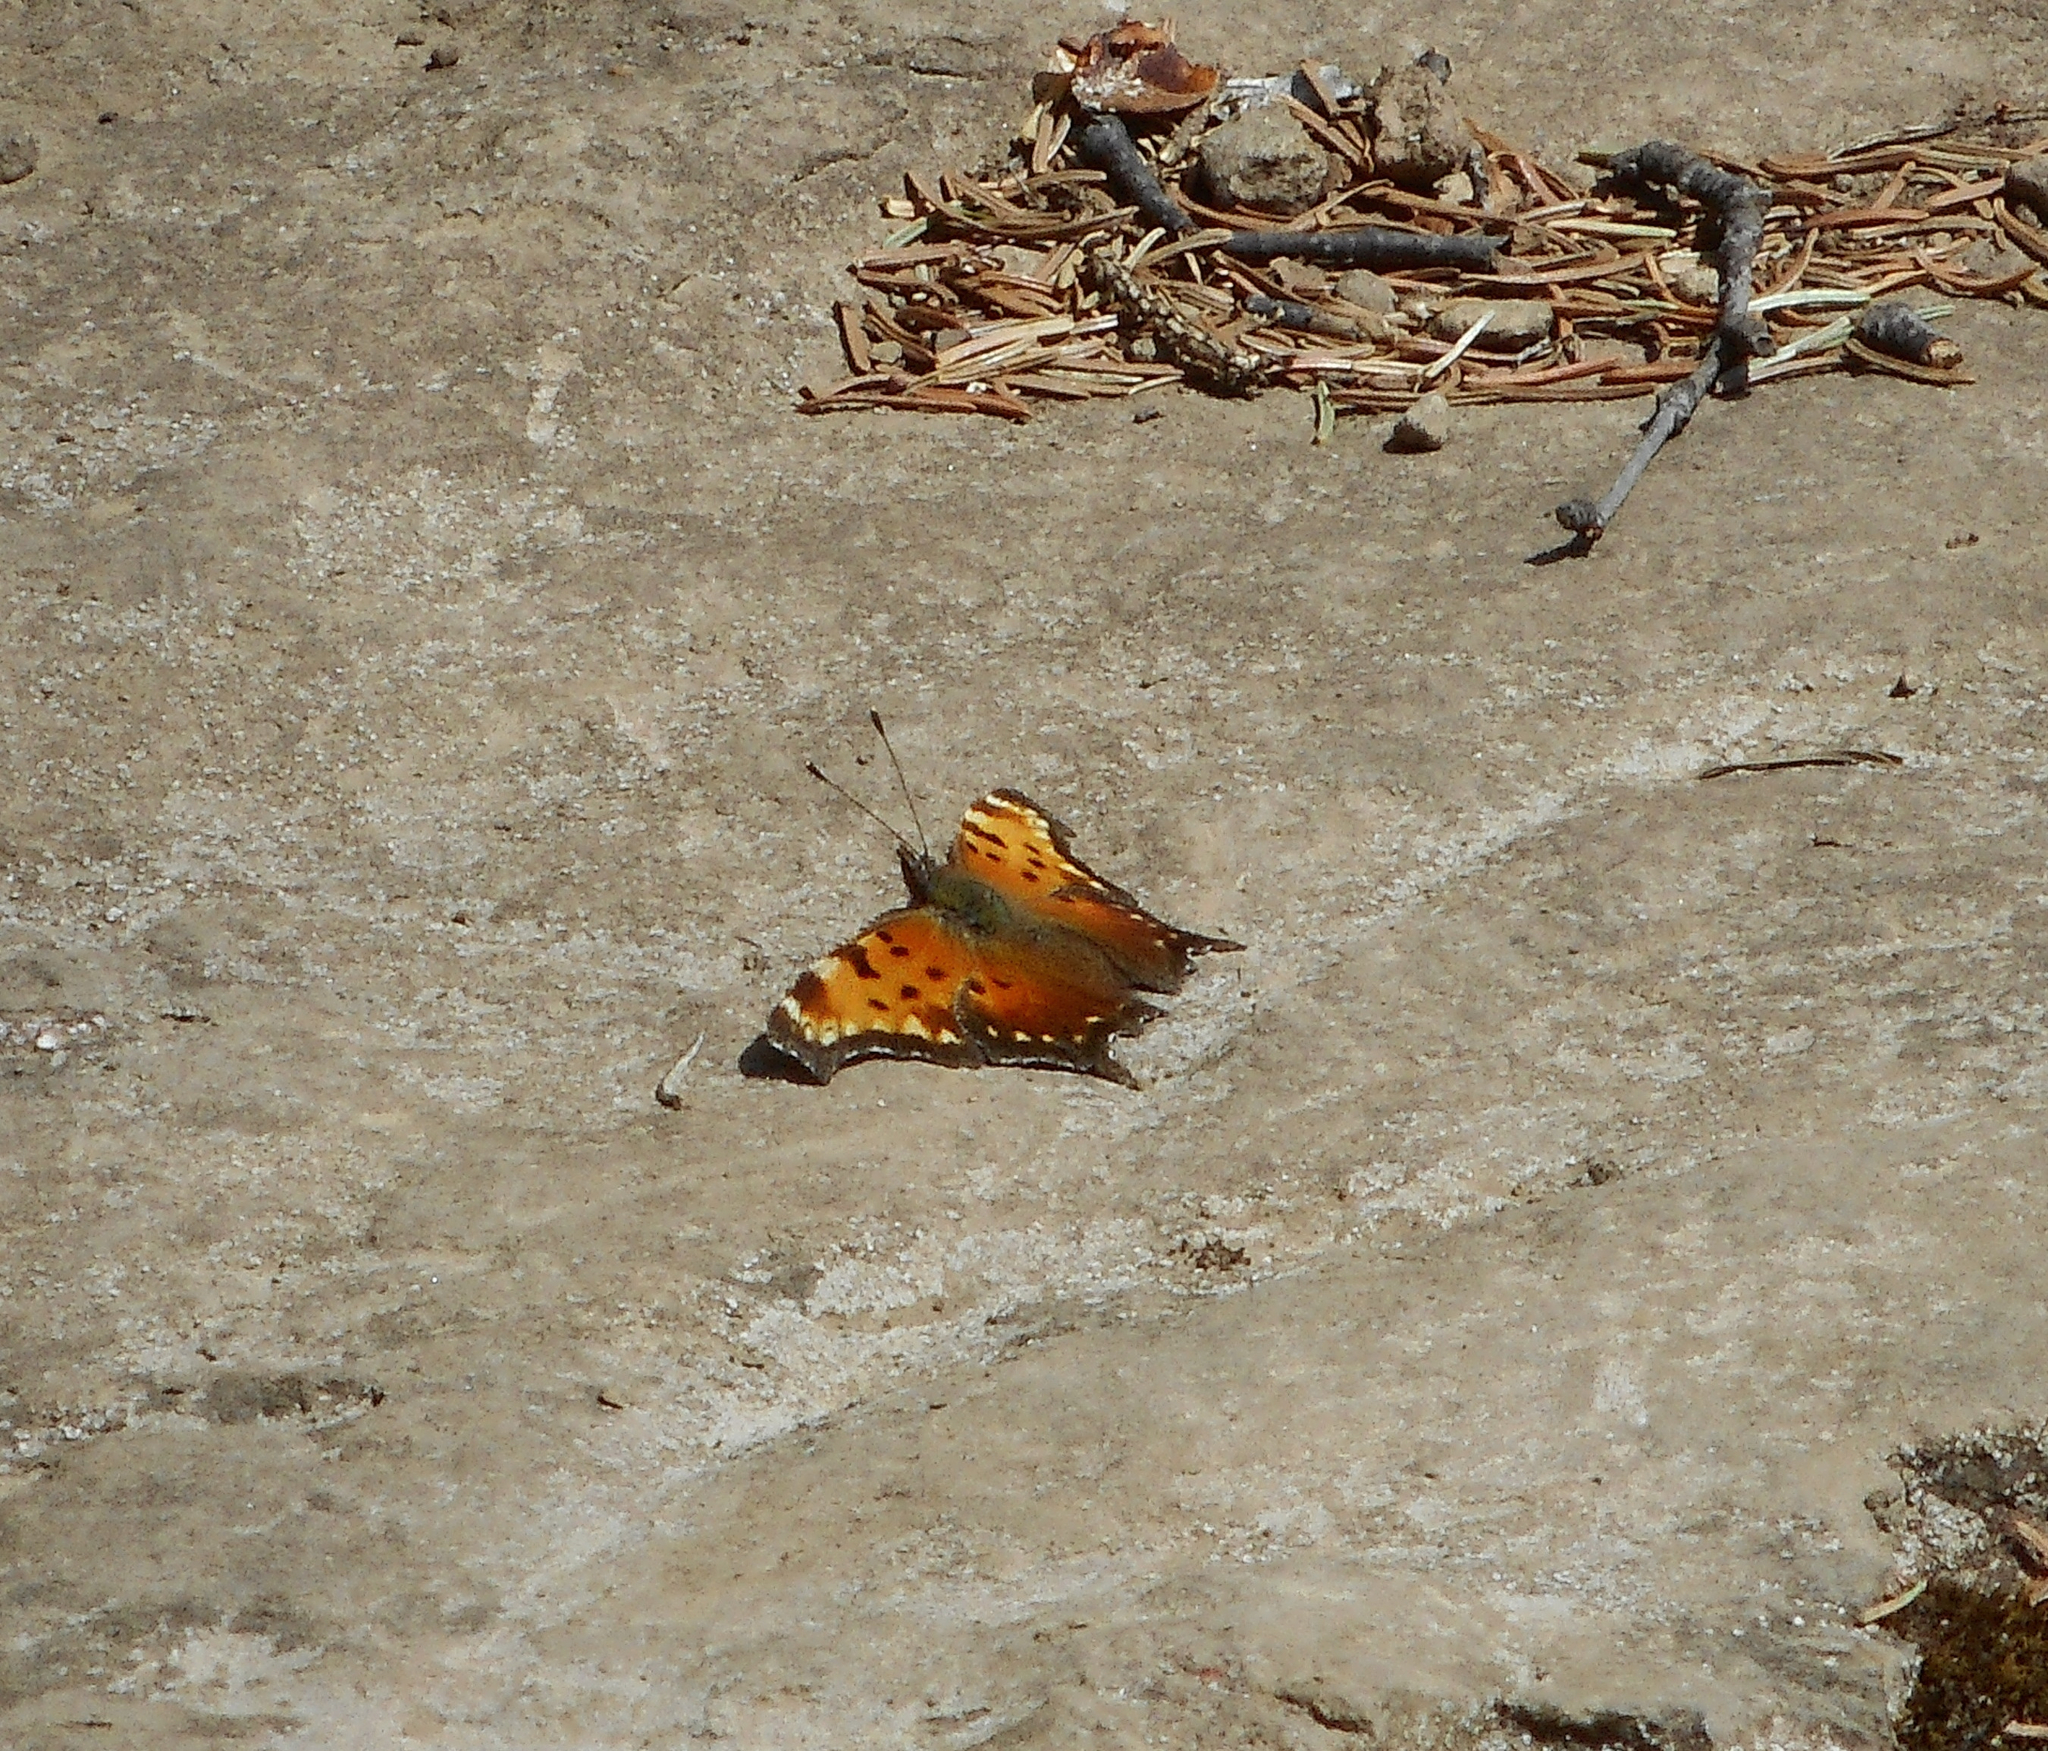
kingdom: Animalia
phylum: Arthropoda
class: Insecta
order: Lepidoptera
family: Nymphalidae
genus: Polygonia
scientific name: Polygonia progne
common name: Gray comma
